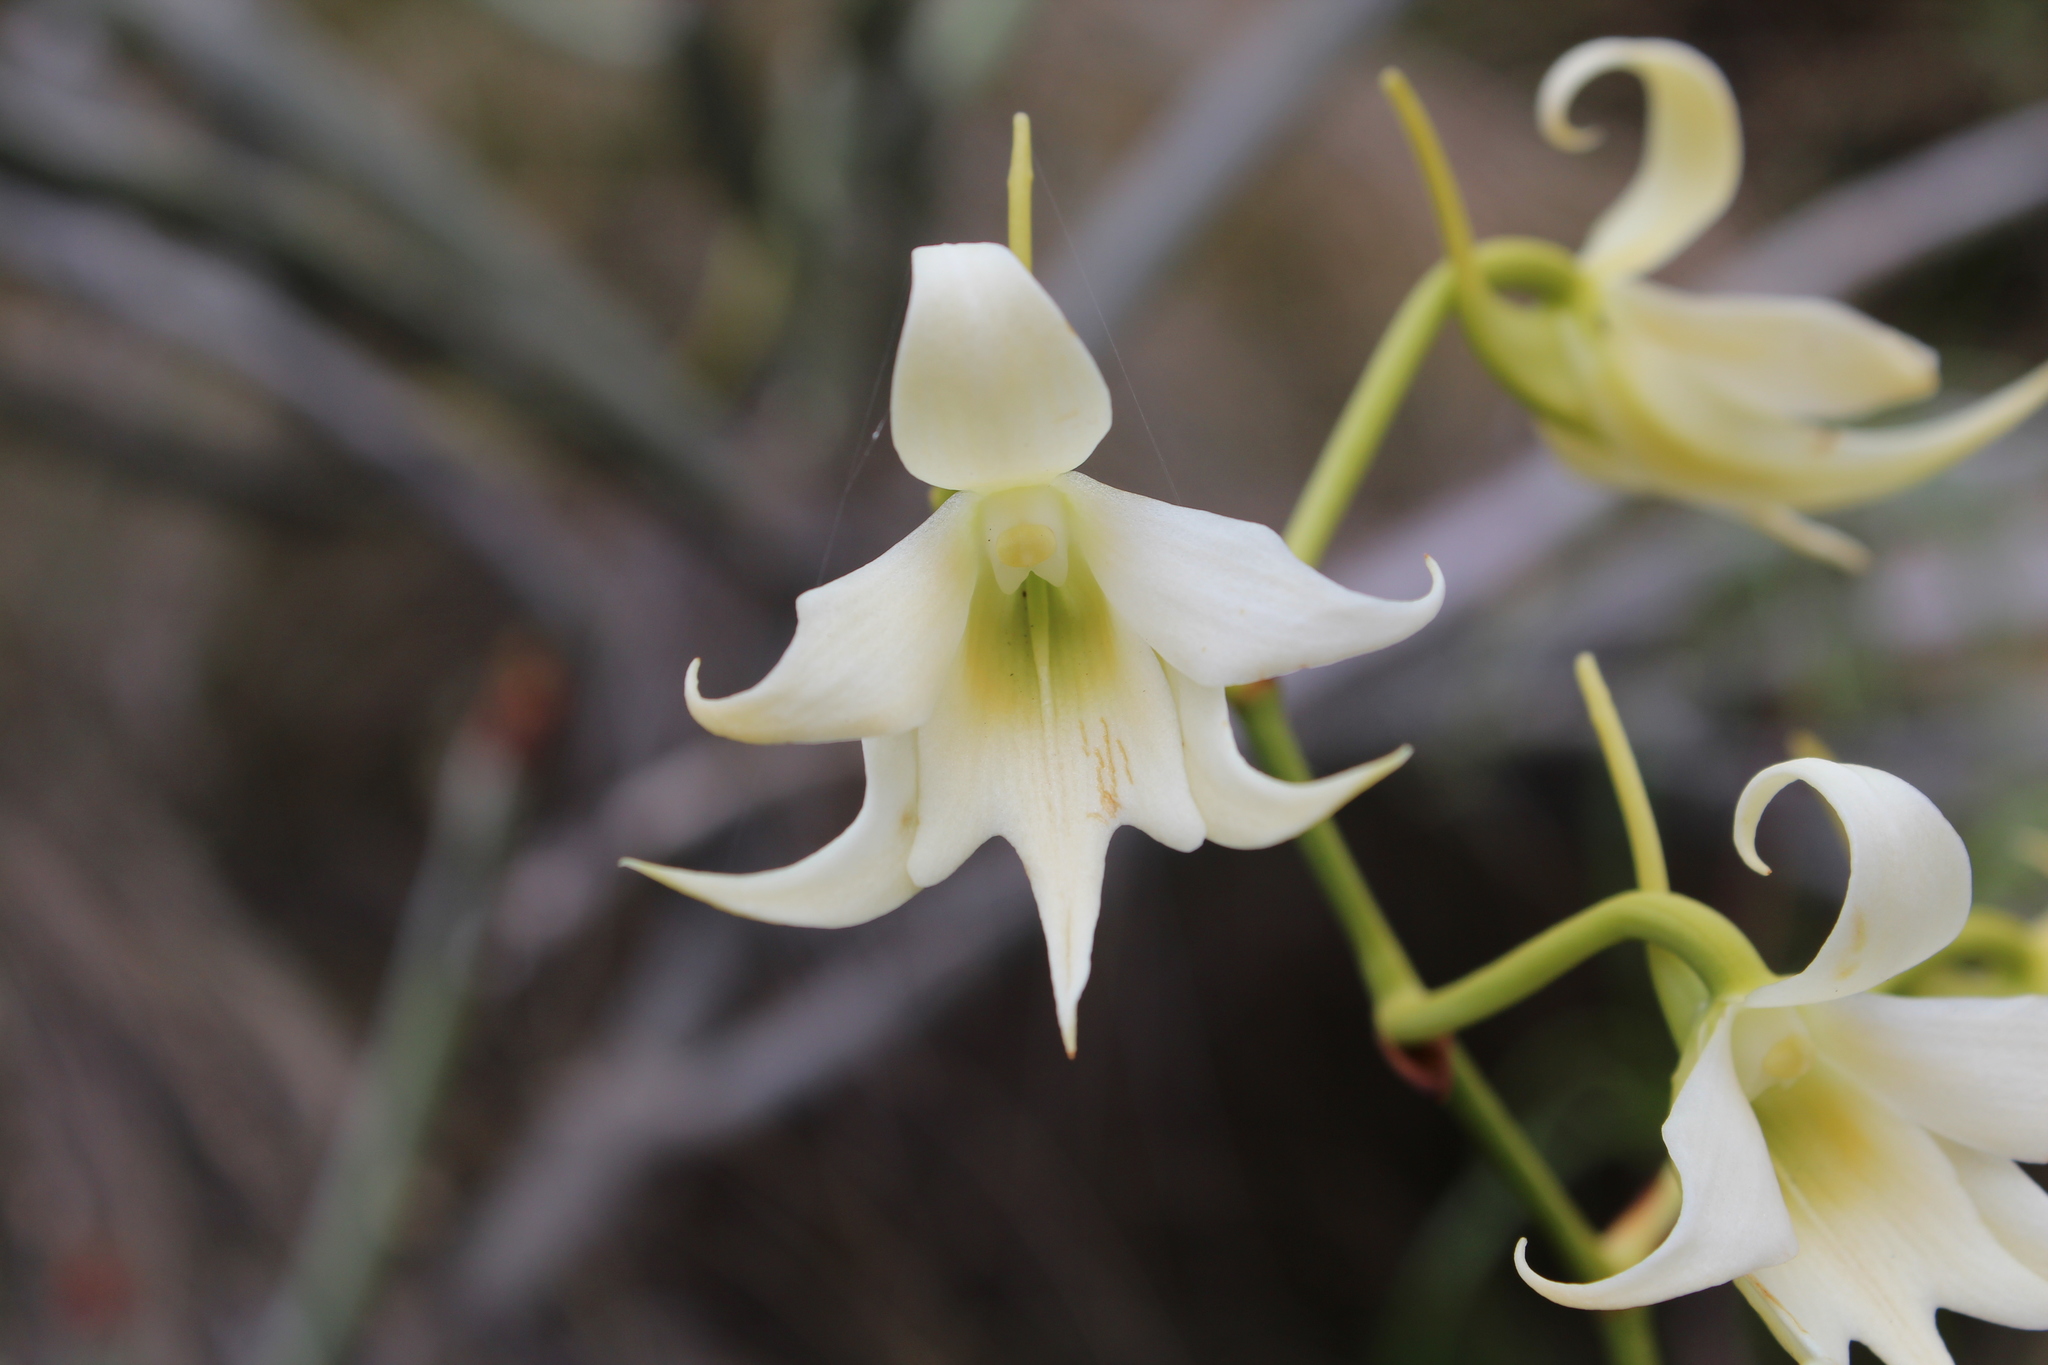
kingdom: Plantae
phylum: Tracheophyta
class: Liliopsida
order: Asparagales
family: Orchidaceae
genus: Sobennikoffia
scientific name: Sobennikoffia humbertiana
